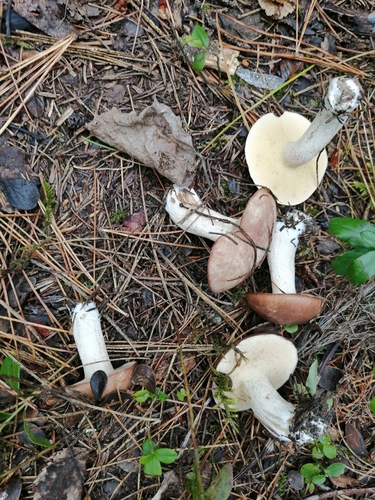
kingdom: Fungi
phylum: Basidiomycota
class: Agaricomycetes
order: Boletales
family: Suillaceae
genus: Suillus
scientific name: Suillus placidus
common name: Slippery white bolete
